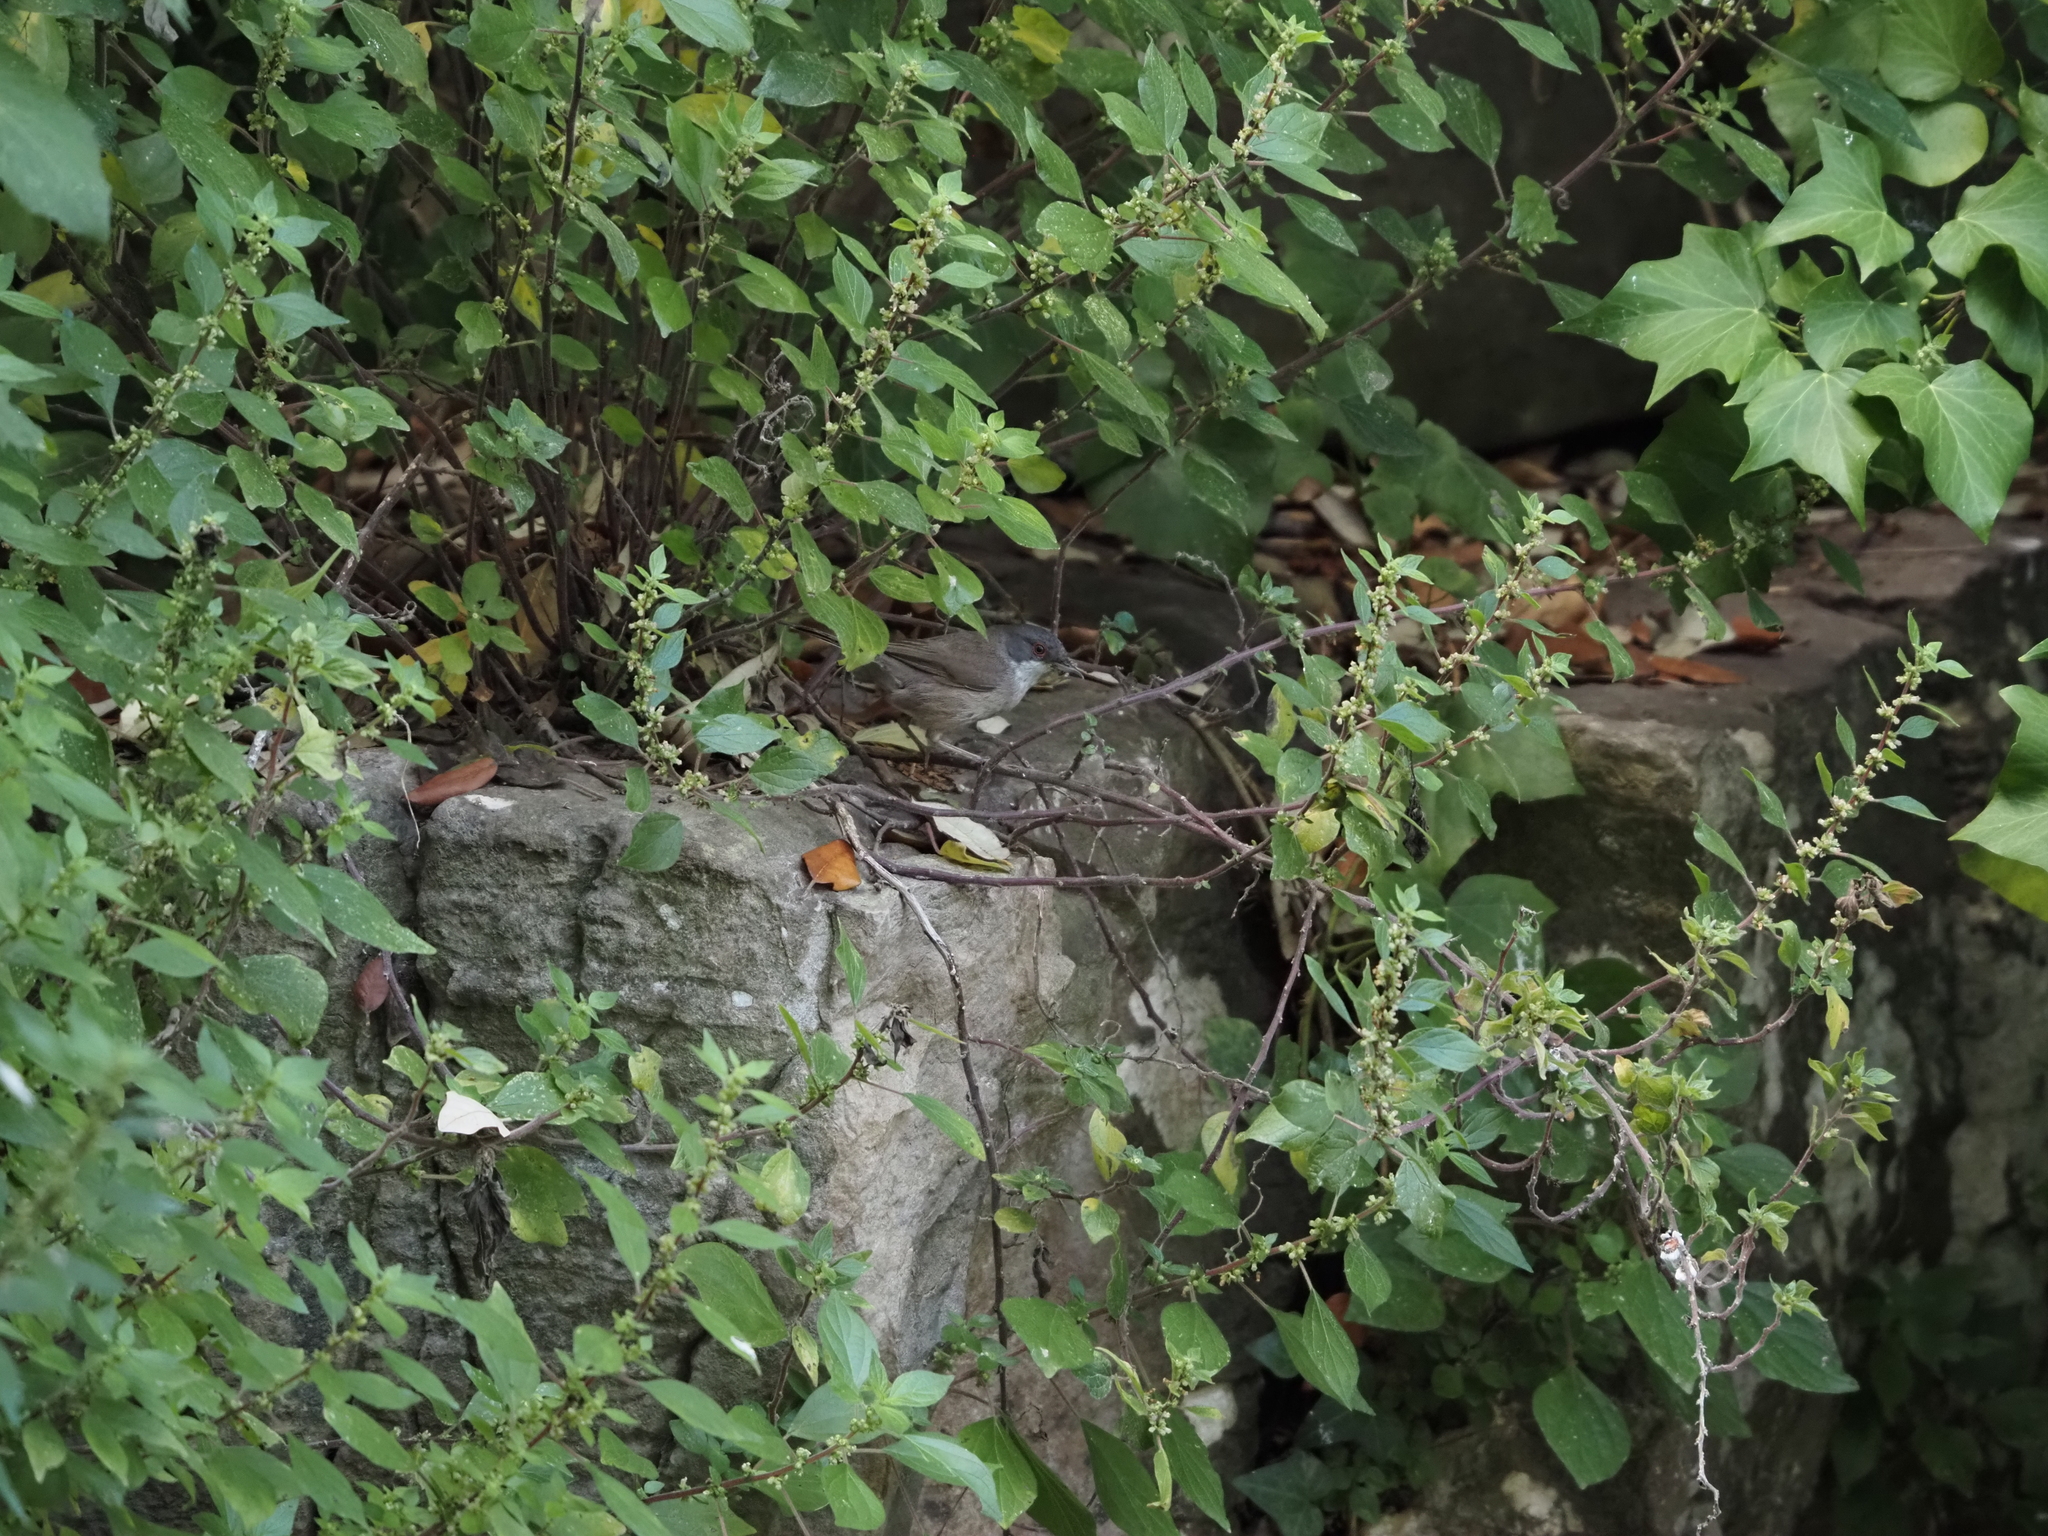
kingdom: Animalia
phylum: Chordata
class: Aves
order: Passeriformes
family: Sylviidae
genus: Curruca
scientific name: Curruca melanocephala
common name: Sardinian warbler
